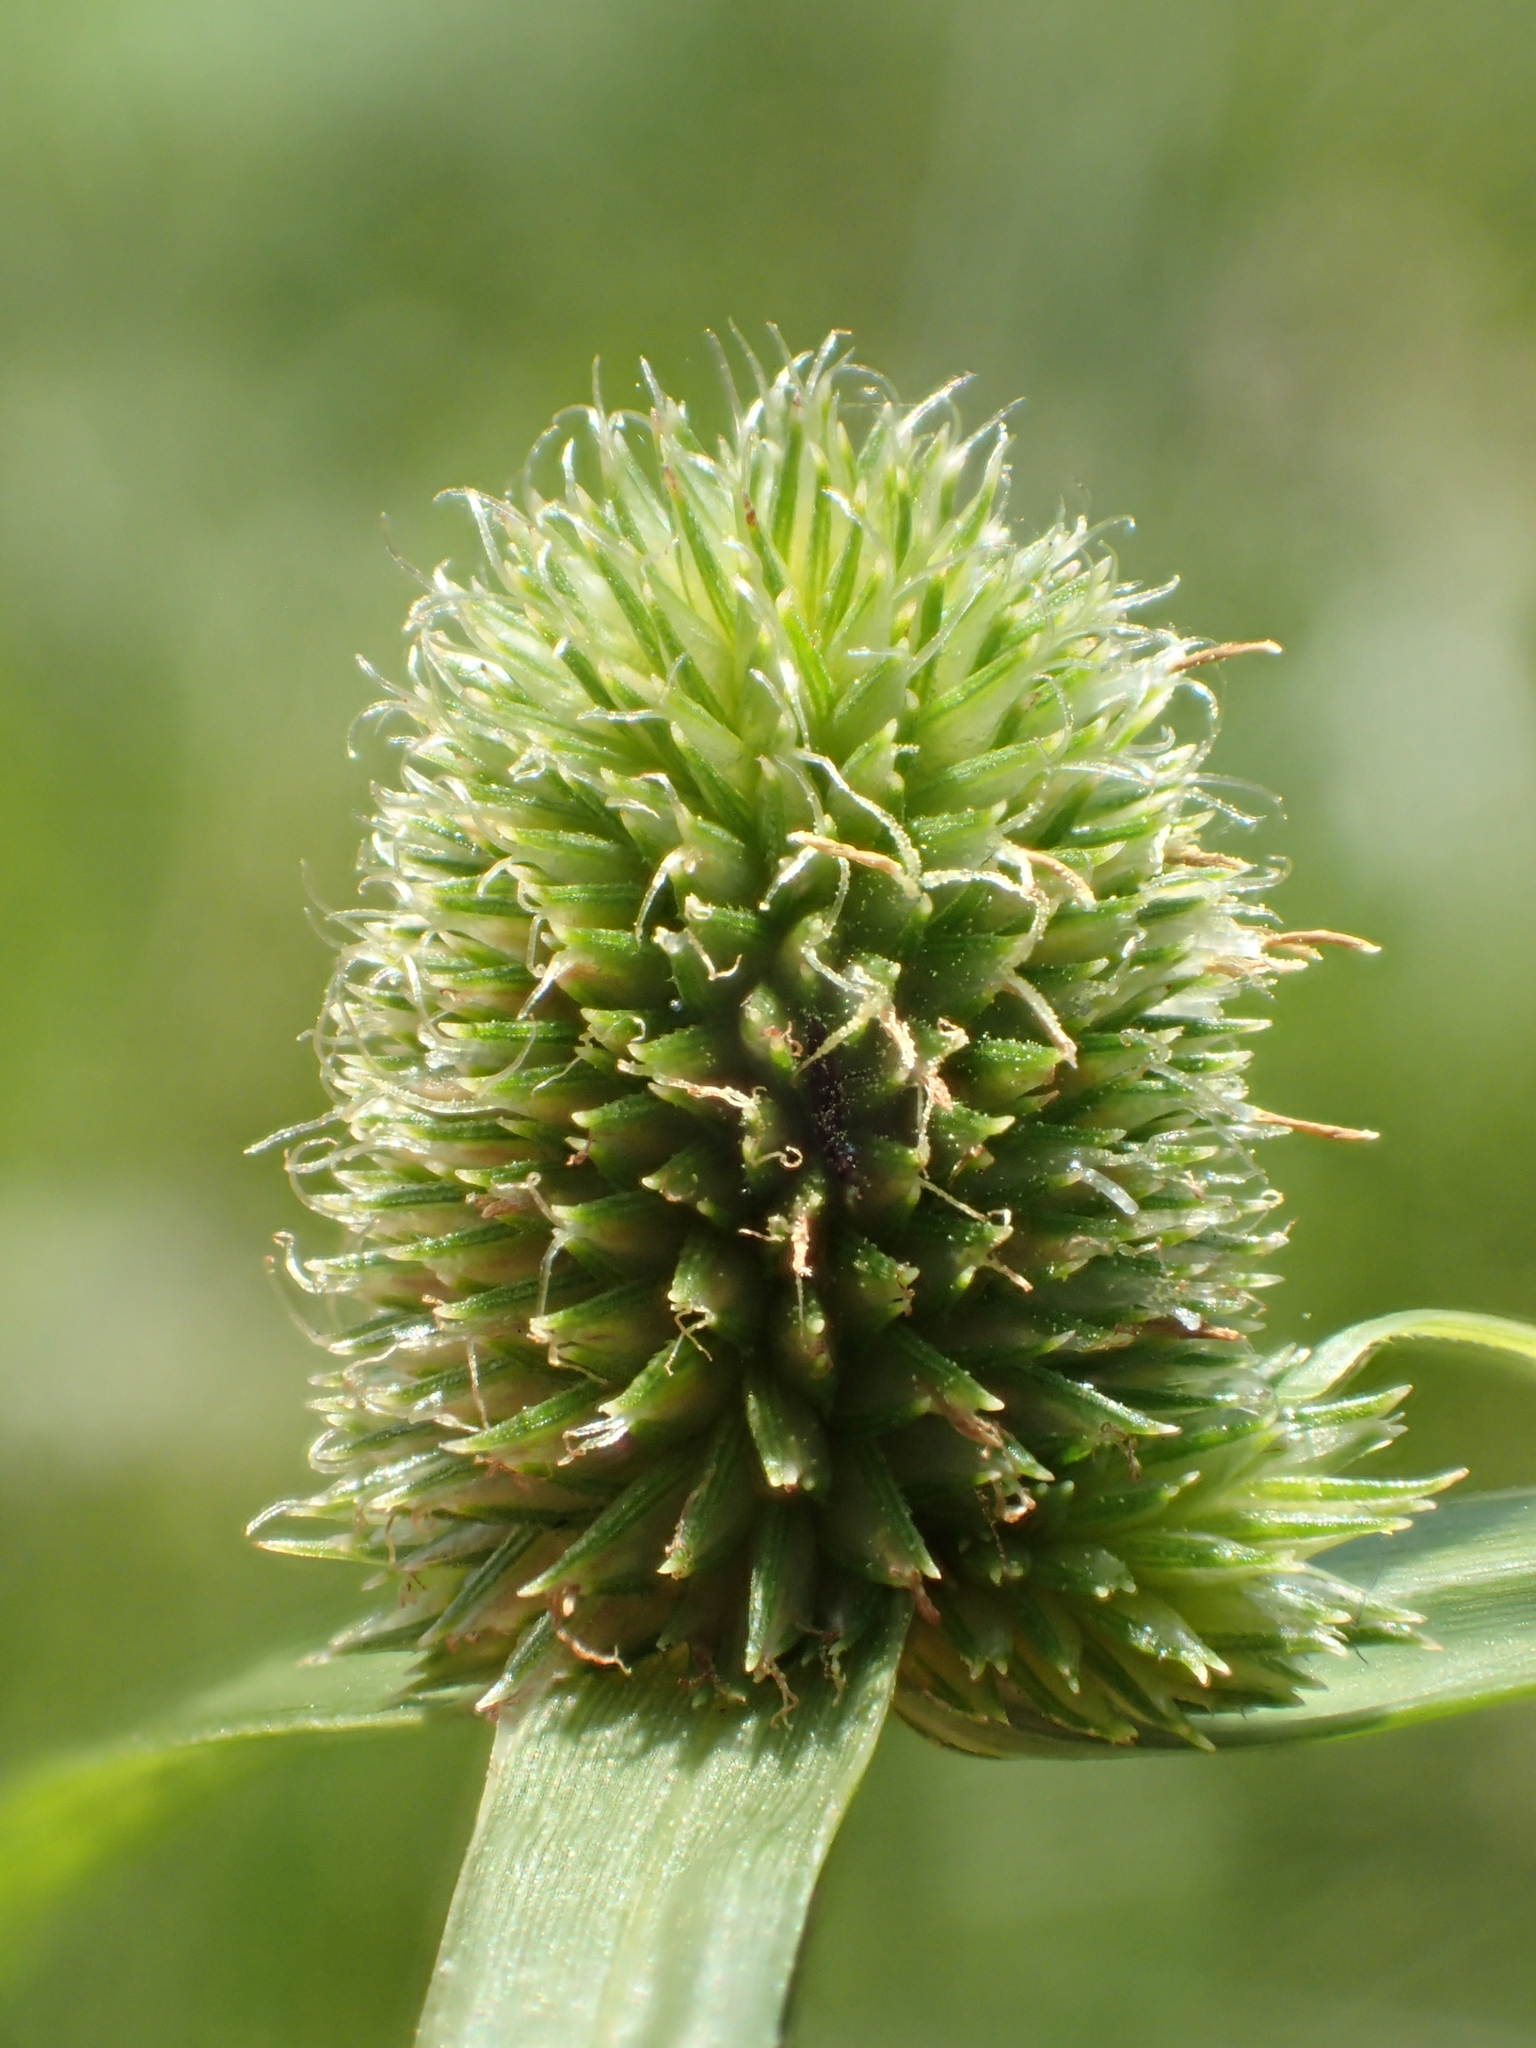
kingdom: Plantae
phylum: Tracheophyta
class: Liliopsida
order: Poales
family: Cyperaceae
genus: Cyperus
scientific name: Cyperus brevifolius
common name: Globe kyllinga
